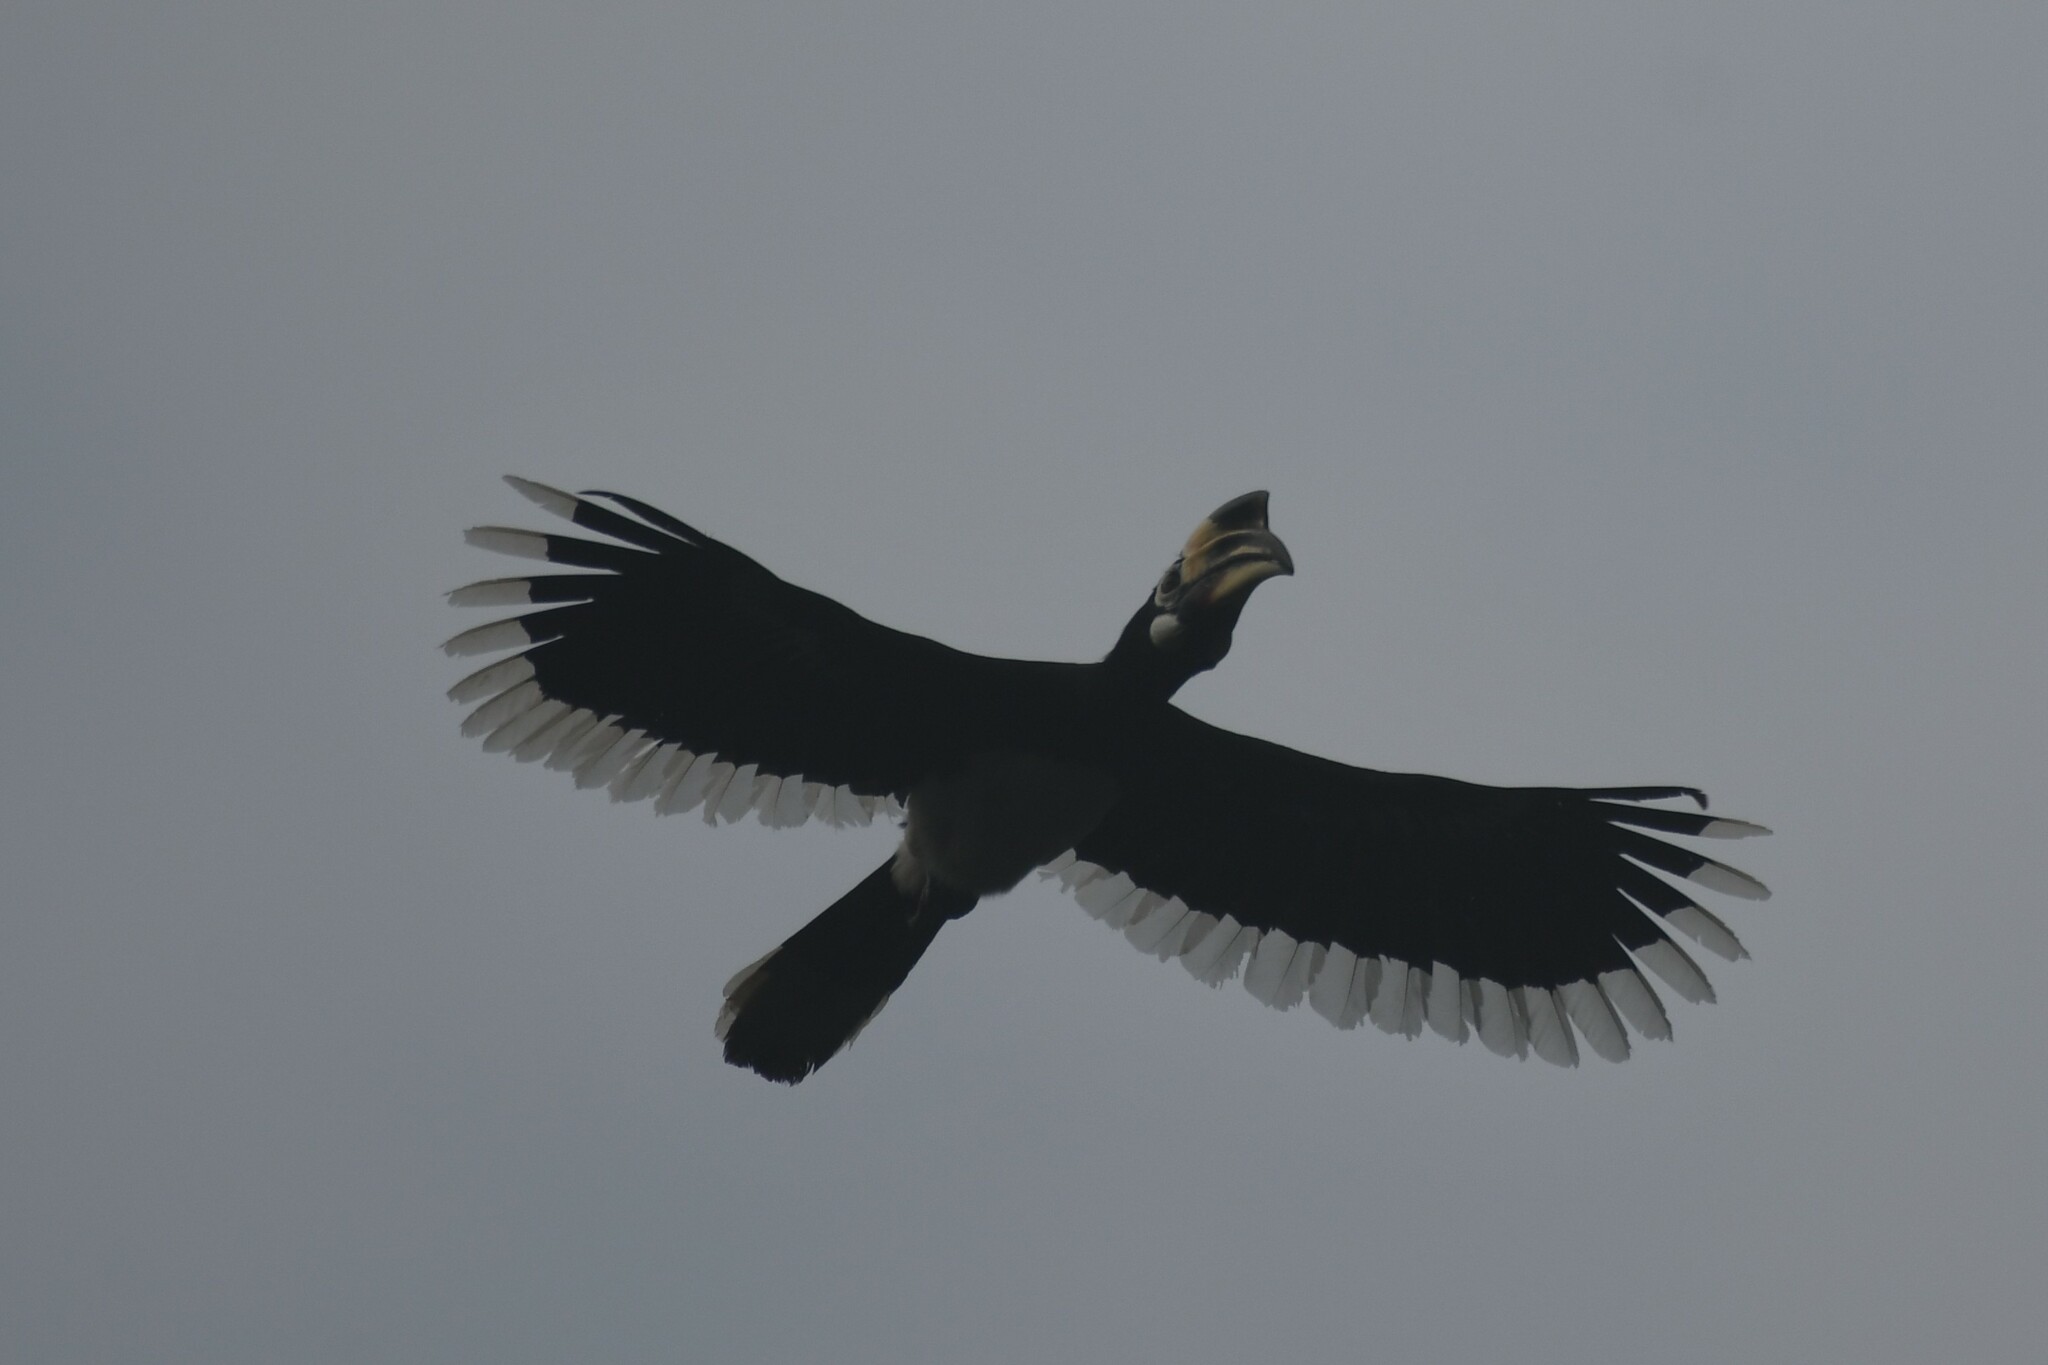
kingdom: Animalia
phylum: Chordata
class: Aves
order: Bucerotiformes
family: Bucerotidae
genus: Anthracoceros
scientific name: Anthracoceros albirostris
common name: Oriental pied-hornbill
